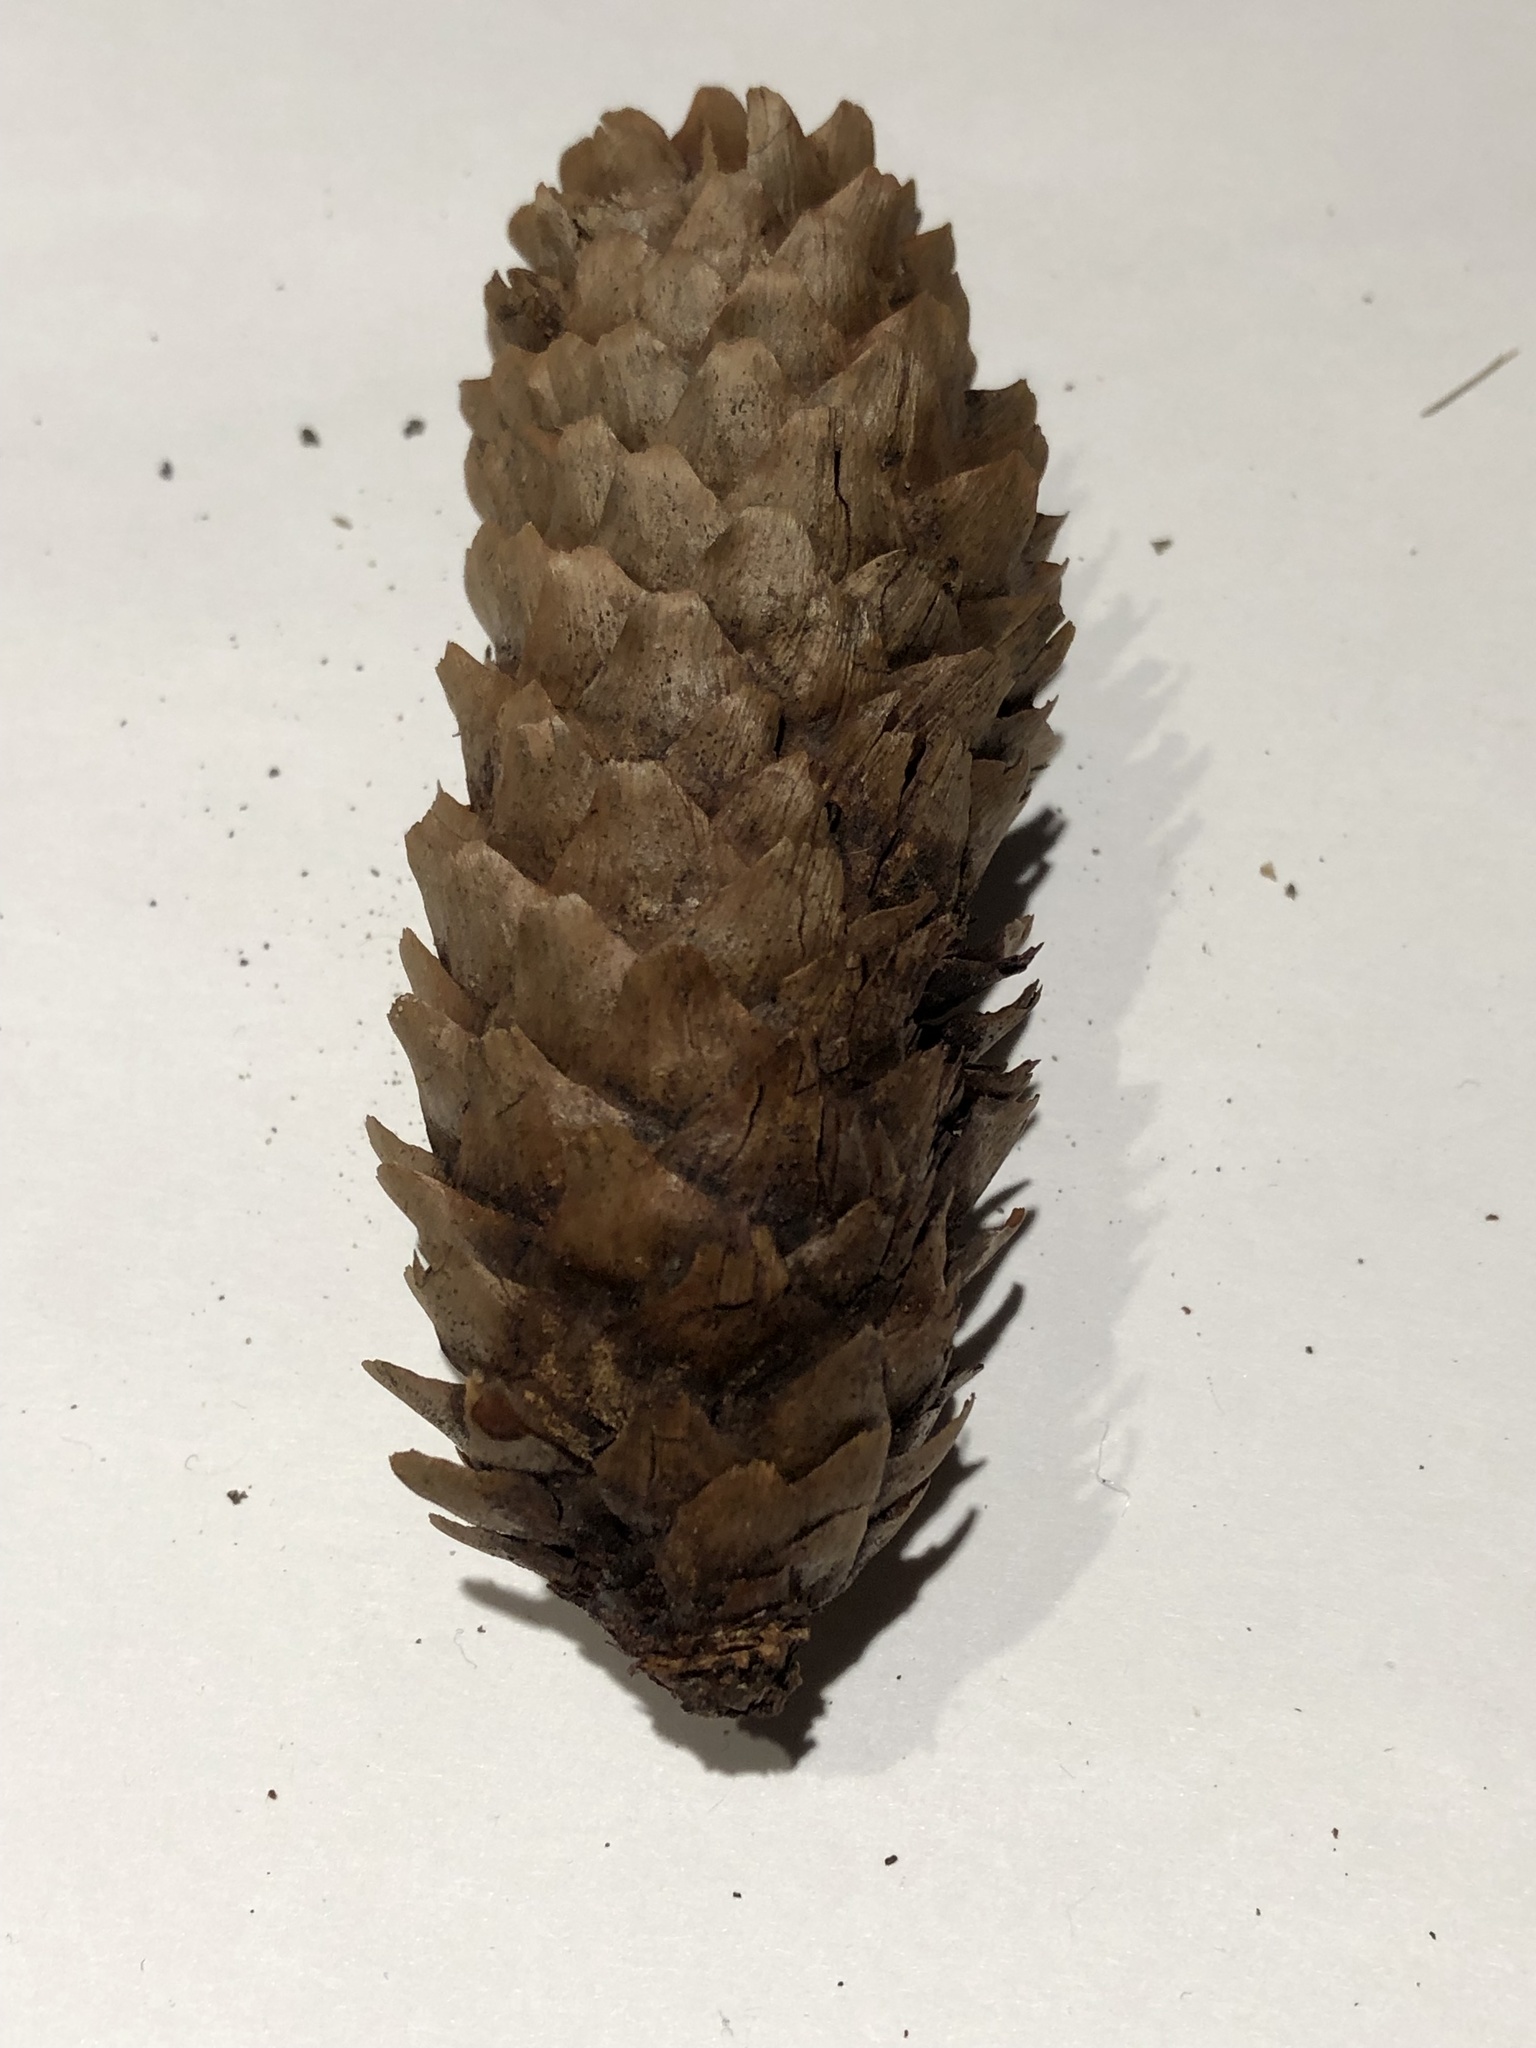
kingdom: Plantae
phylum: Tracheophyta
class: Pinopsida
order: Pinales
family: Pinaceae
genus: Picea
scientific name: Picea abies
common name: Norway spruce
